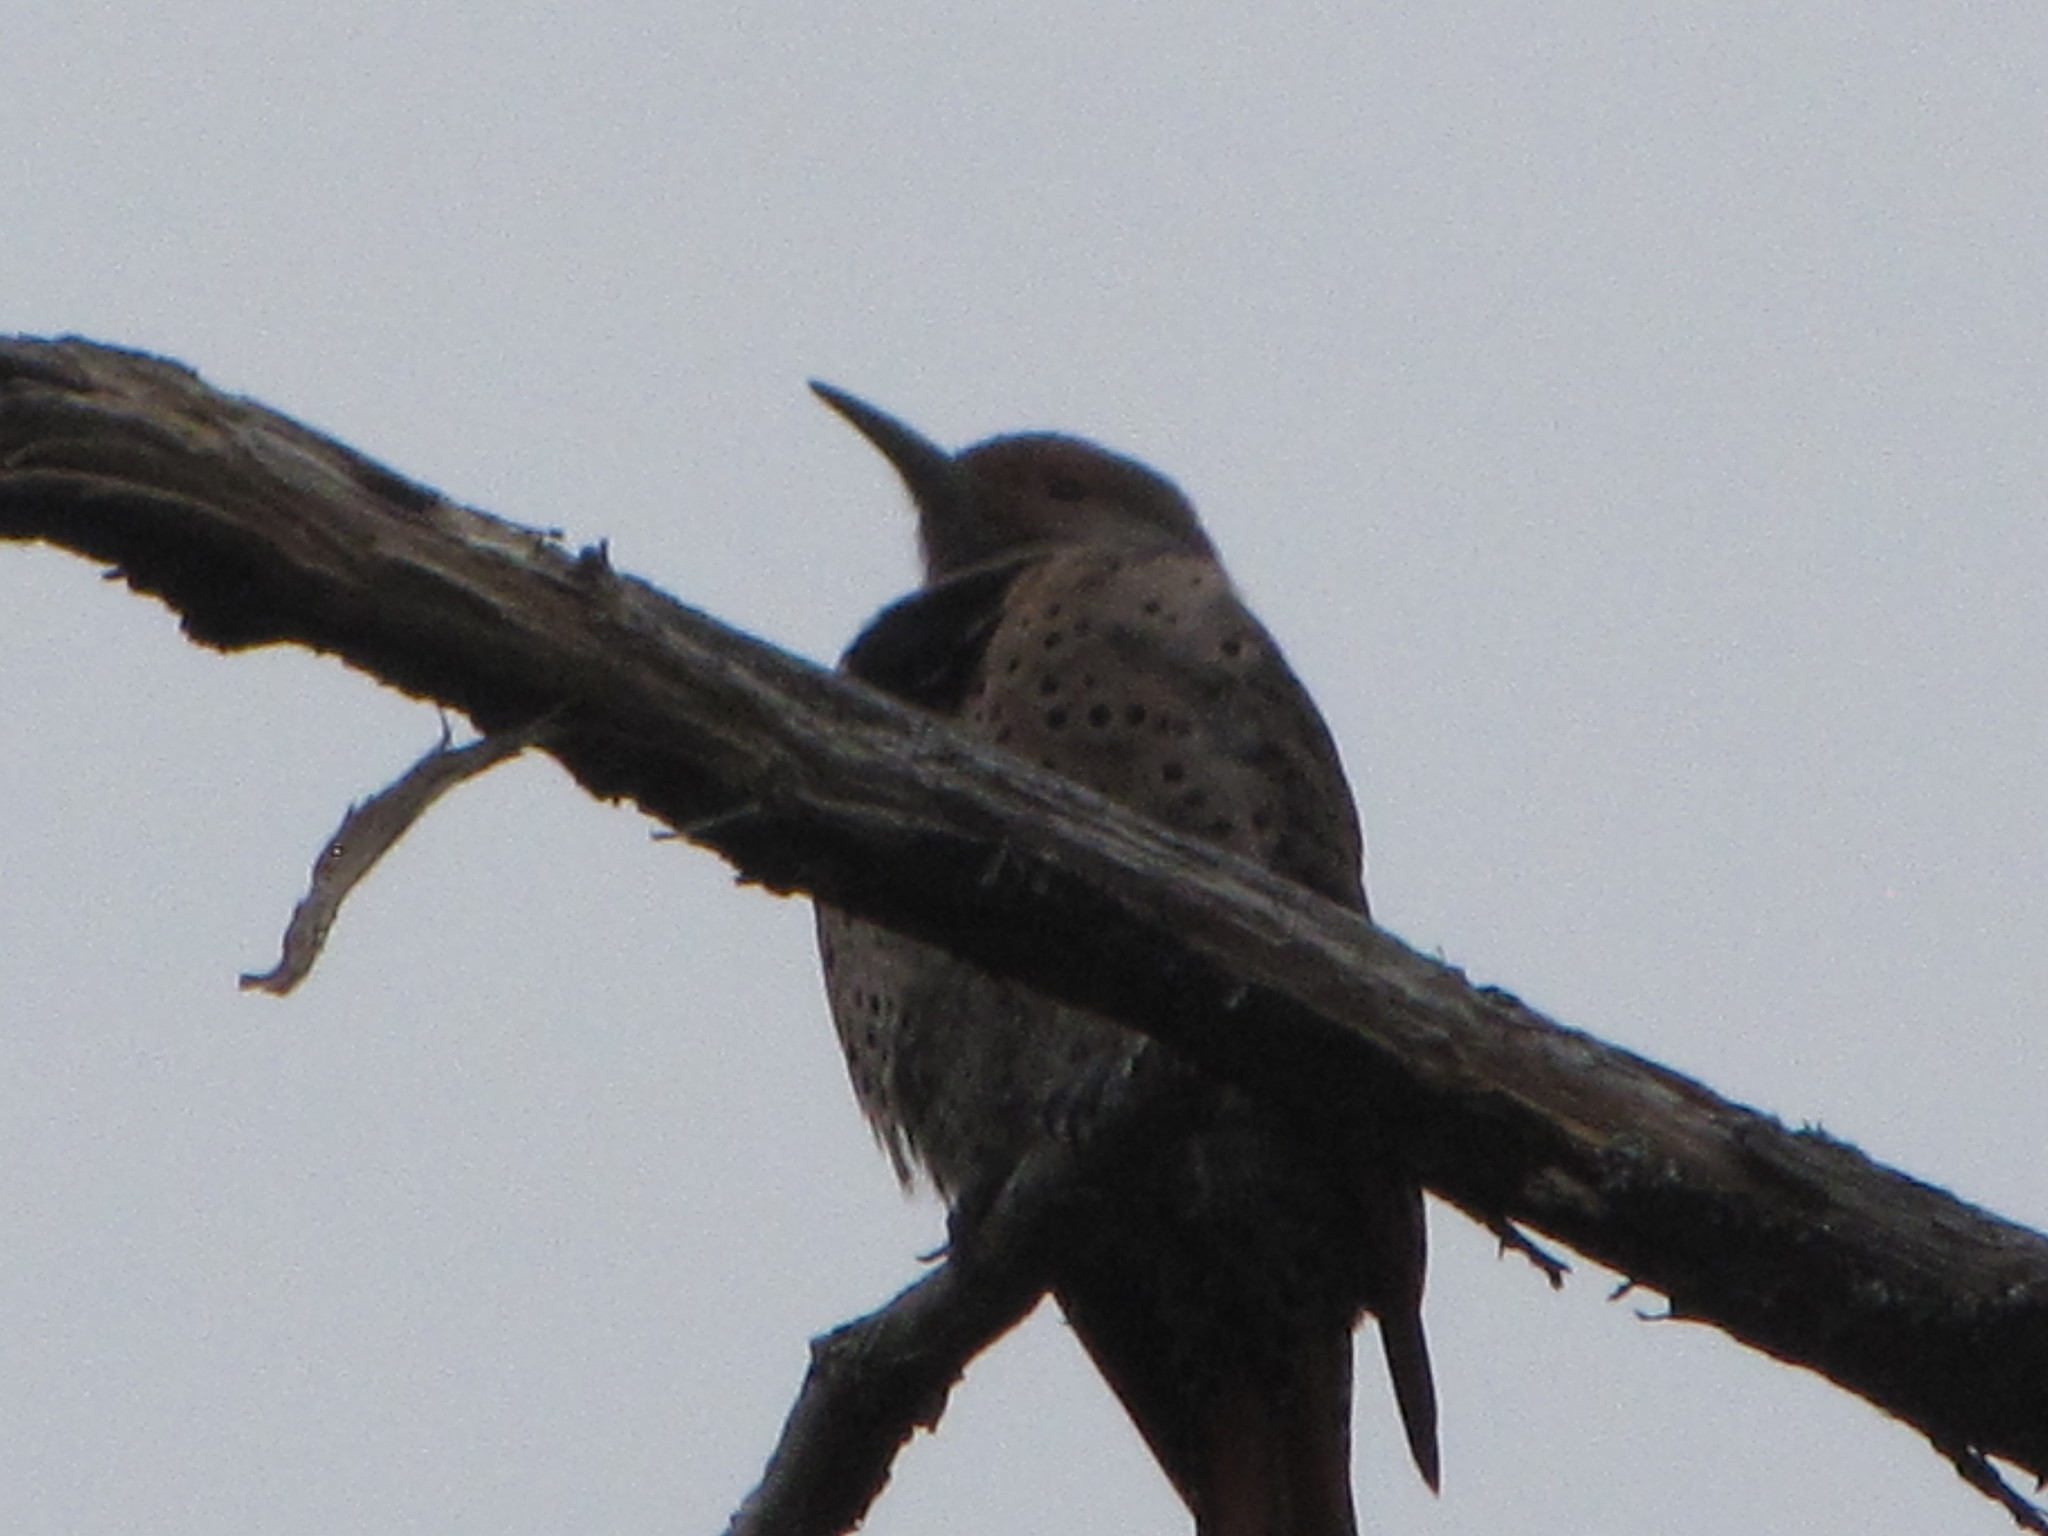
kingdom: Animalia
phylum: Chordata
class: Aves
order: Piciformes
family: Picidae
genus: Colaptes
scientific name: Colaptes auratus
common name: Northern flicker
